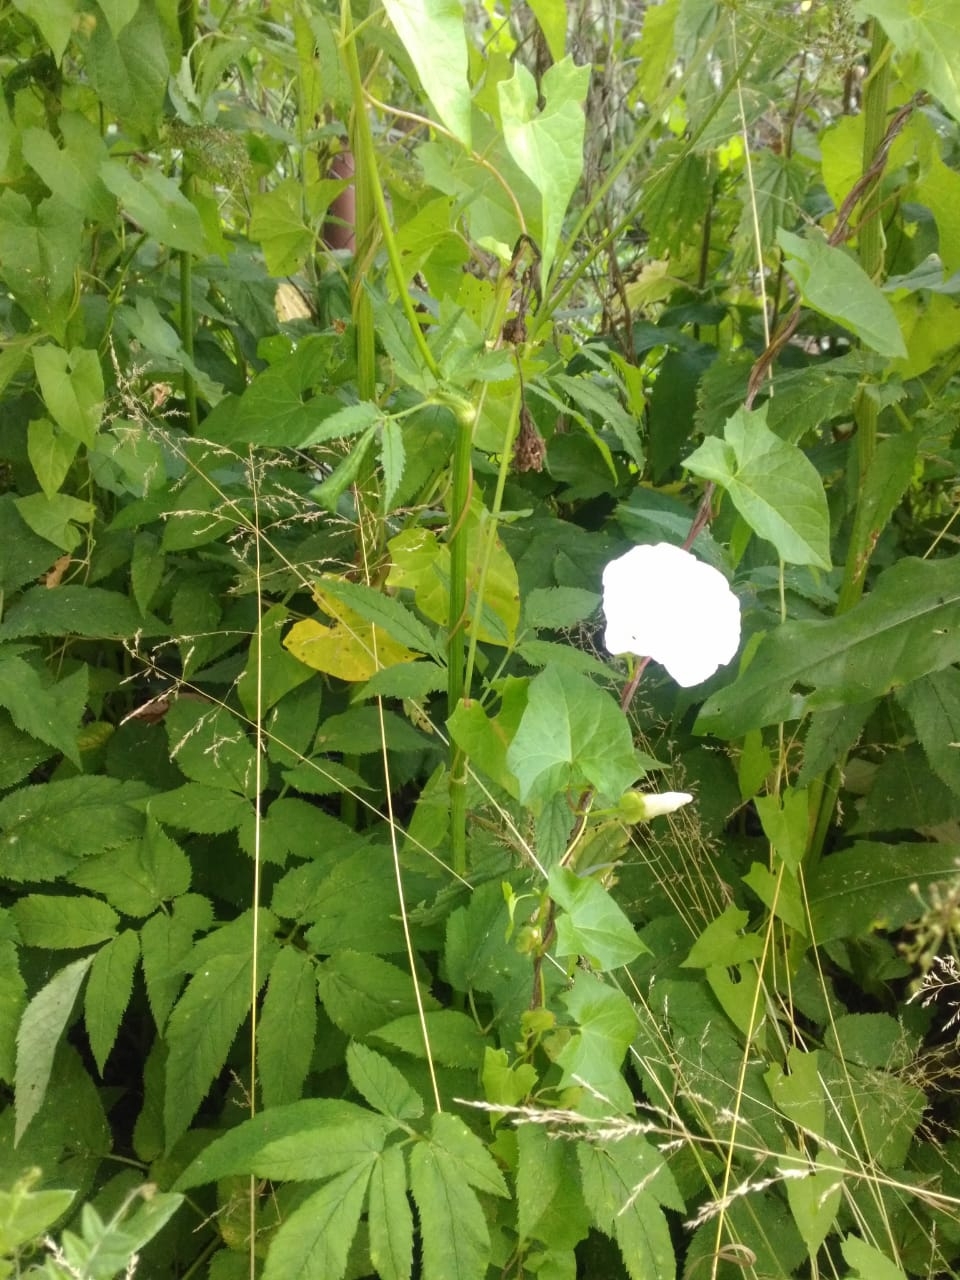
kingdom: Plantae
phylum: Tracheophyta
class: Magnoliopsida
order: Solanales
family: Convolvulaceae
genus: Calystegia
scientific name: Calystegia sepium
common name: Hedge bindweed
